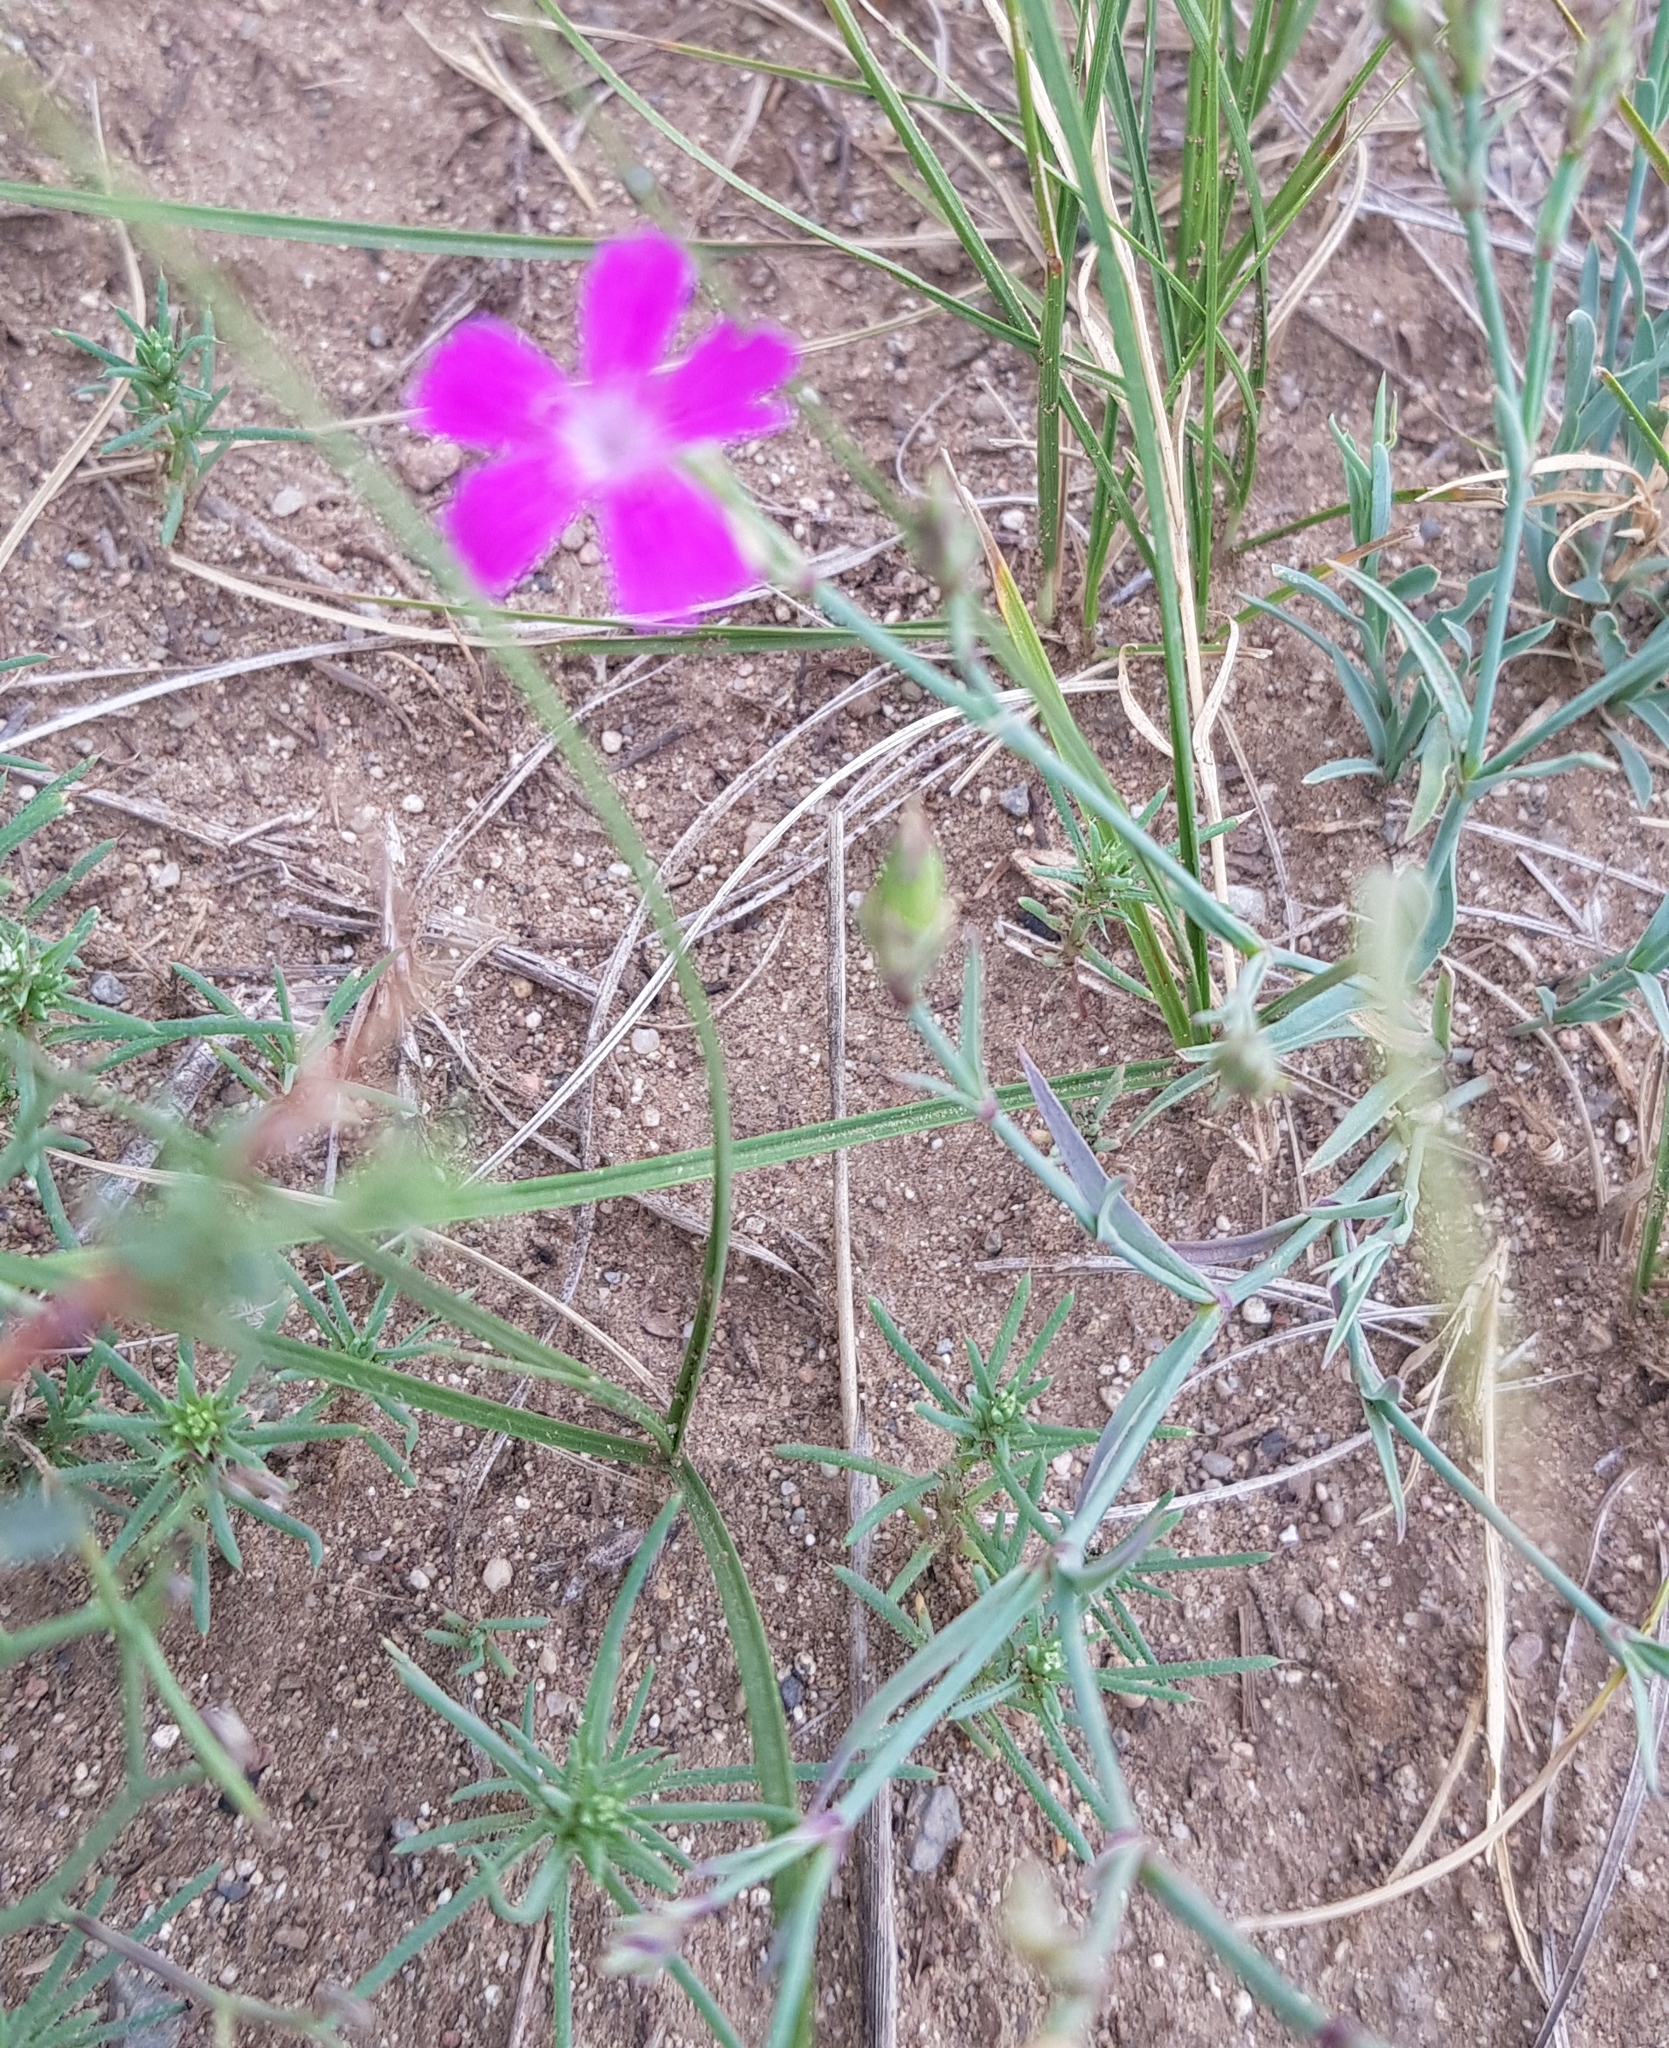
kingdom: Plantae
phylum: Tracheophyta
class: Magnoliopsida
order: Caryophyllales
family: Caryophyllaceae
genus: Dianthus
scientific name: Dianthus chinensis
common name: Rainbow pink
